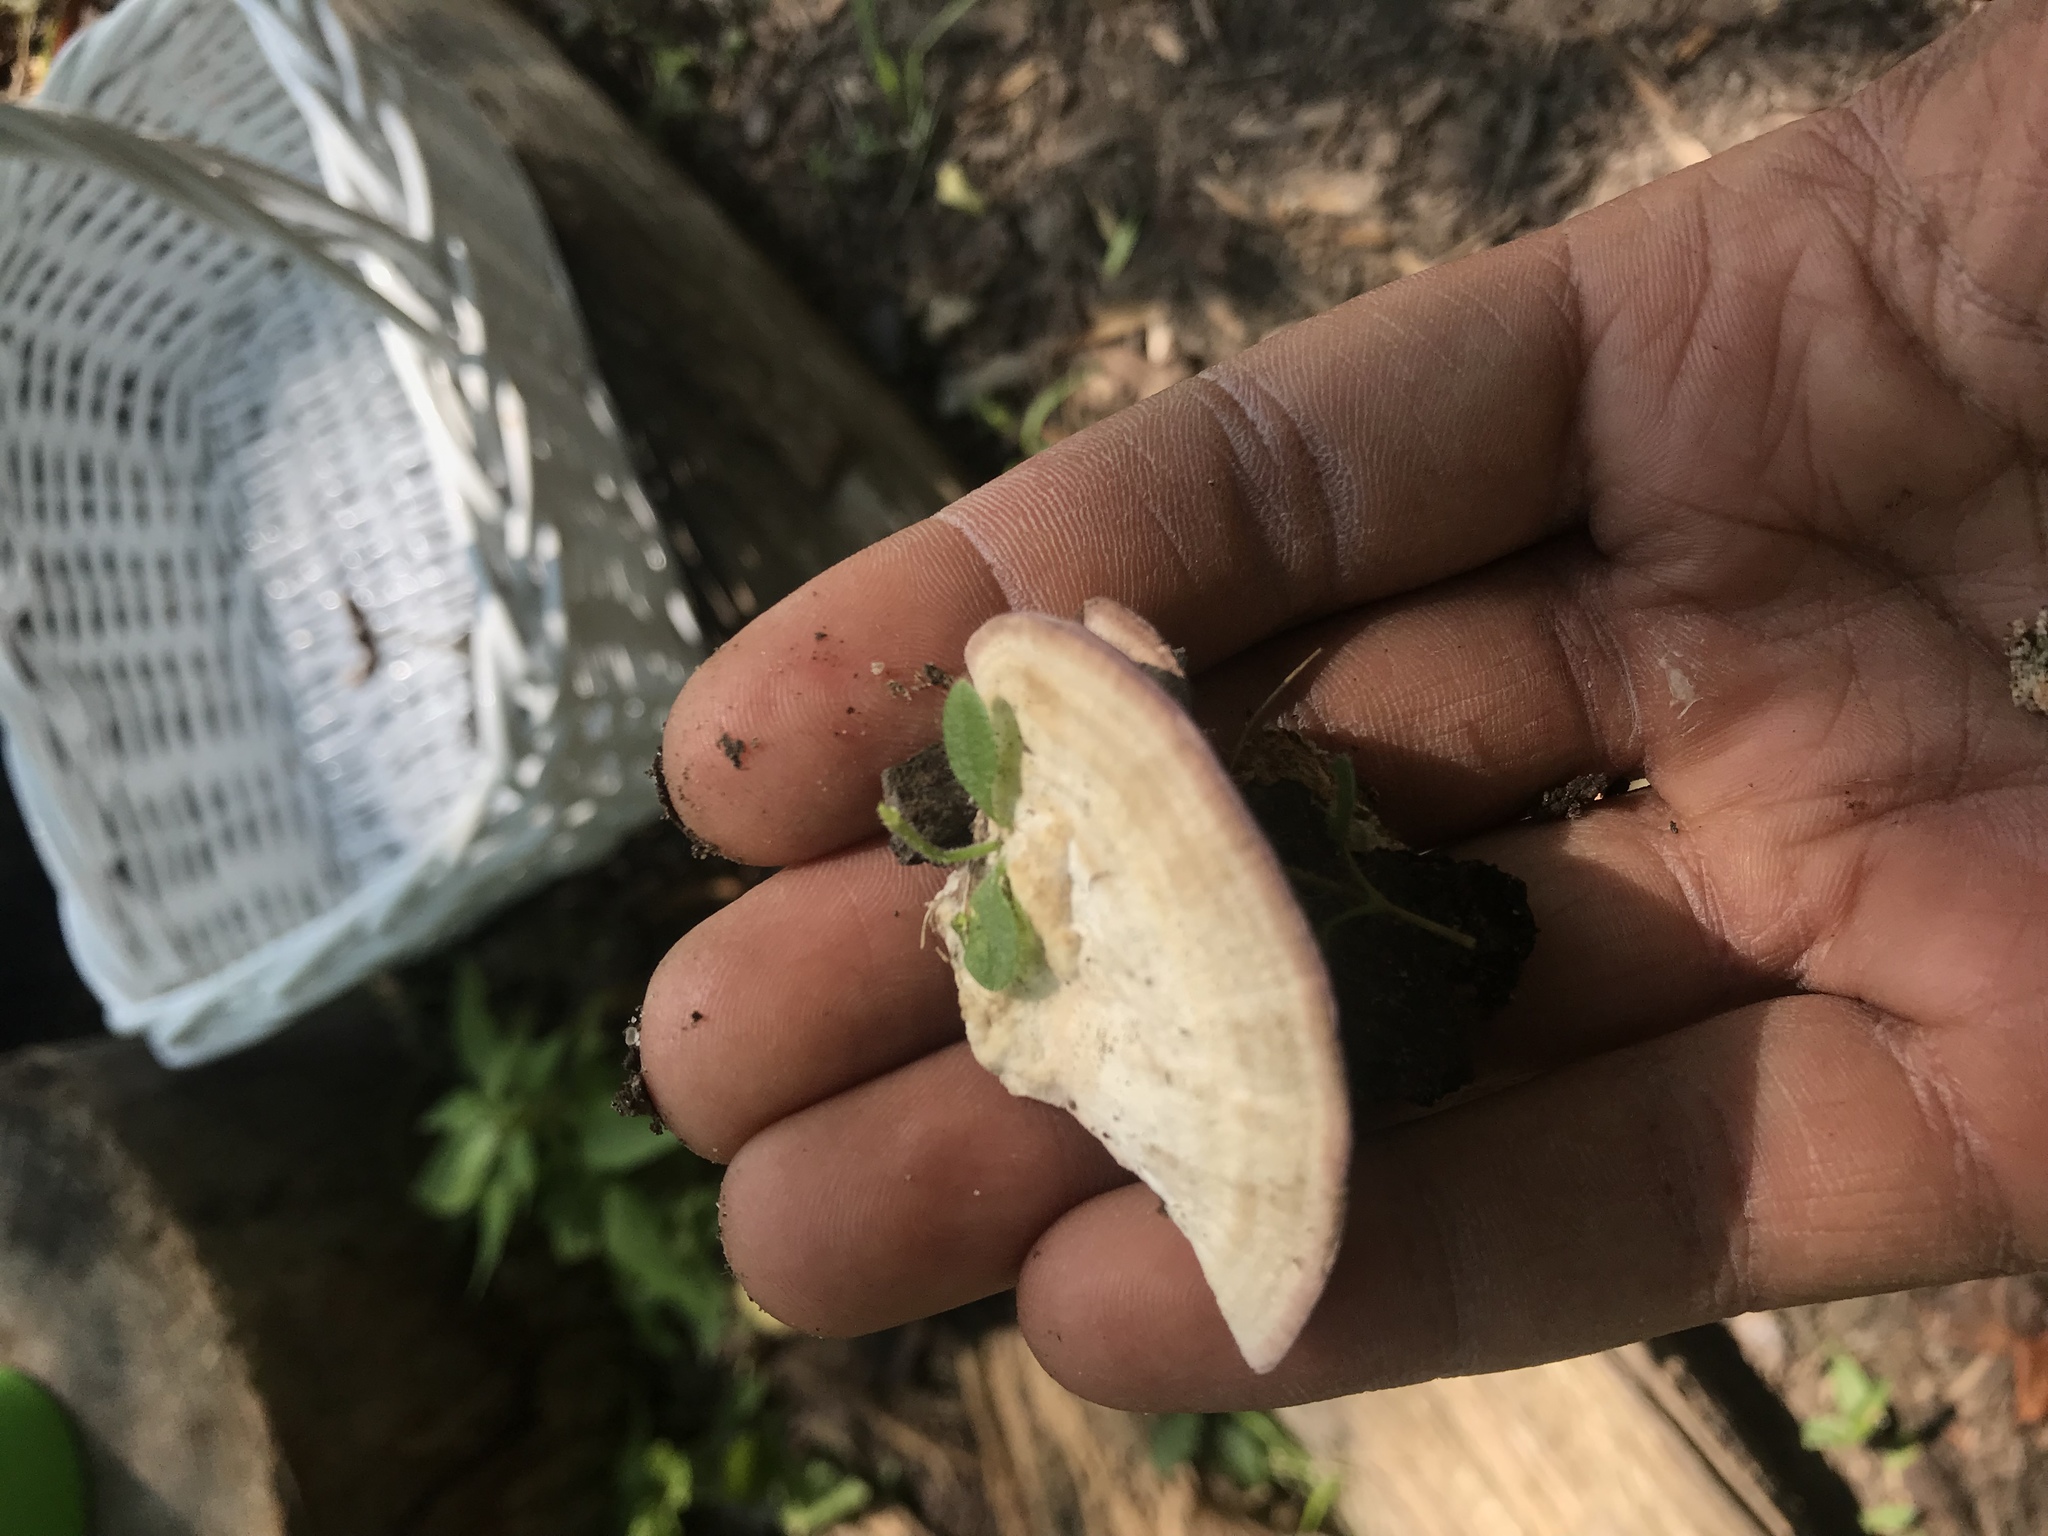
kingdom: Fungi
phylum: Basidiomycota
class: Agaricomycetes
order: Hymenochaetales
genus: Trichaptum
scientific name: Trichaptum biforme
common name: Violet-toothed polypore
